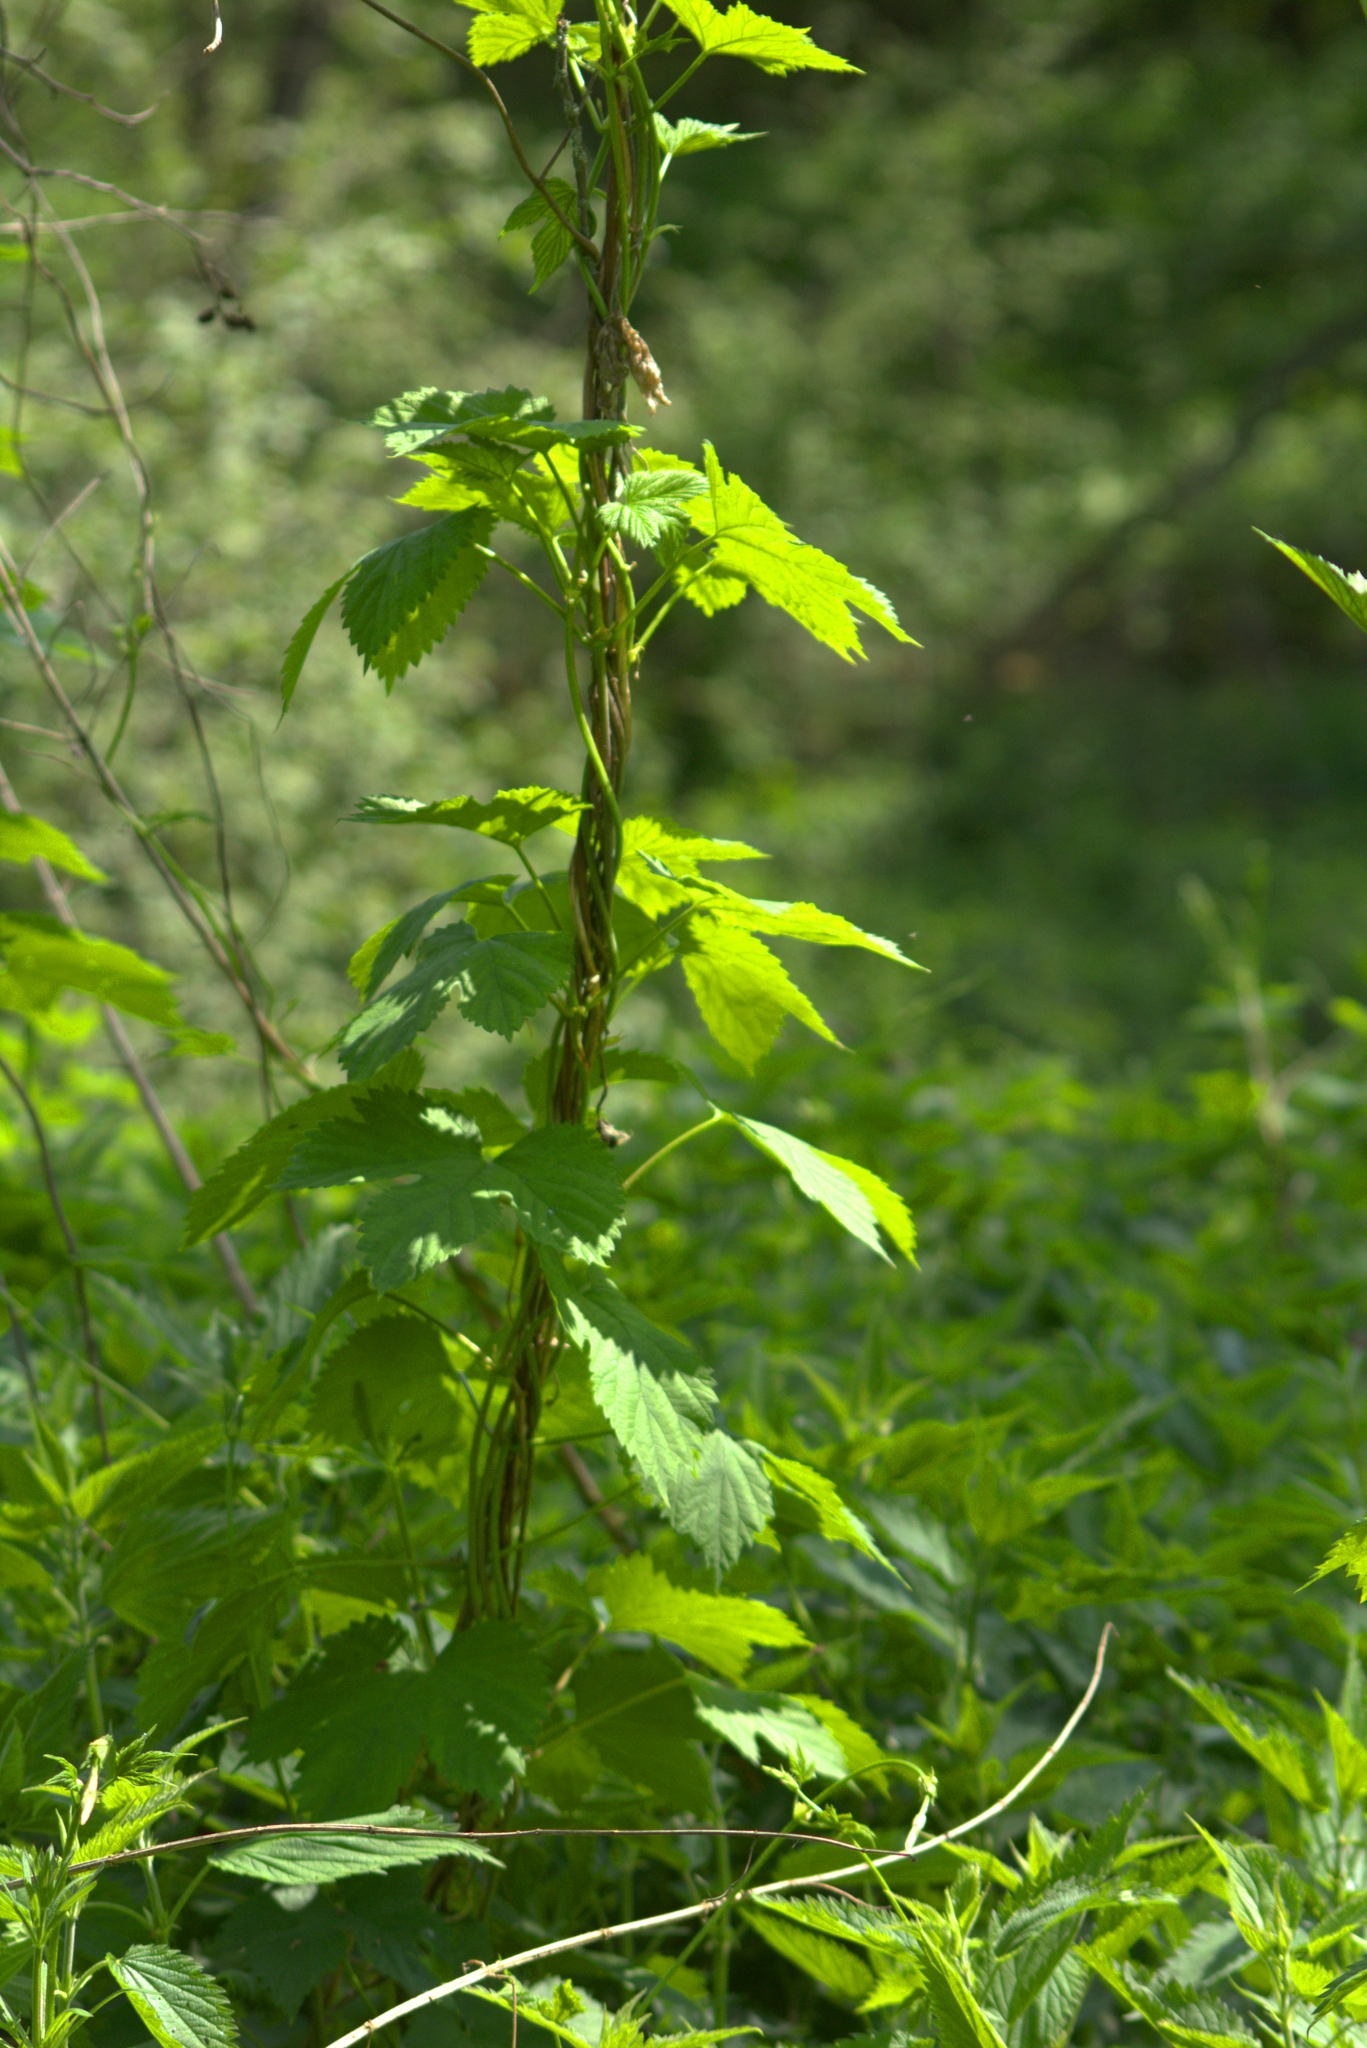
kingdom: Plantae
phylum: Tracheophyta
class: Magnoliopsida
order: Rosales
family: Cannabaceae
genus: Humulus
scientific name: Humulus lupulus
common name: Hop
